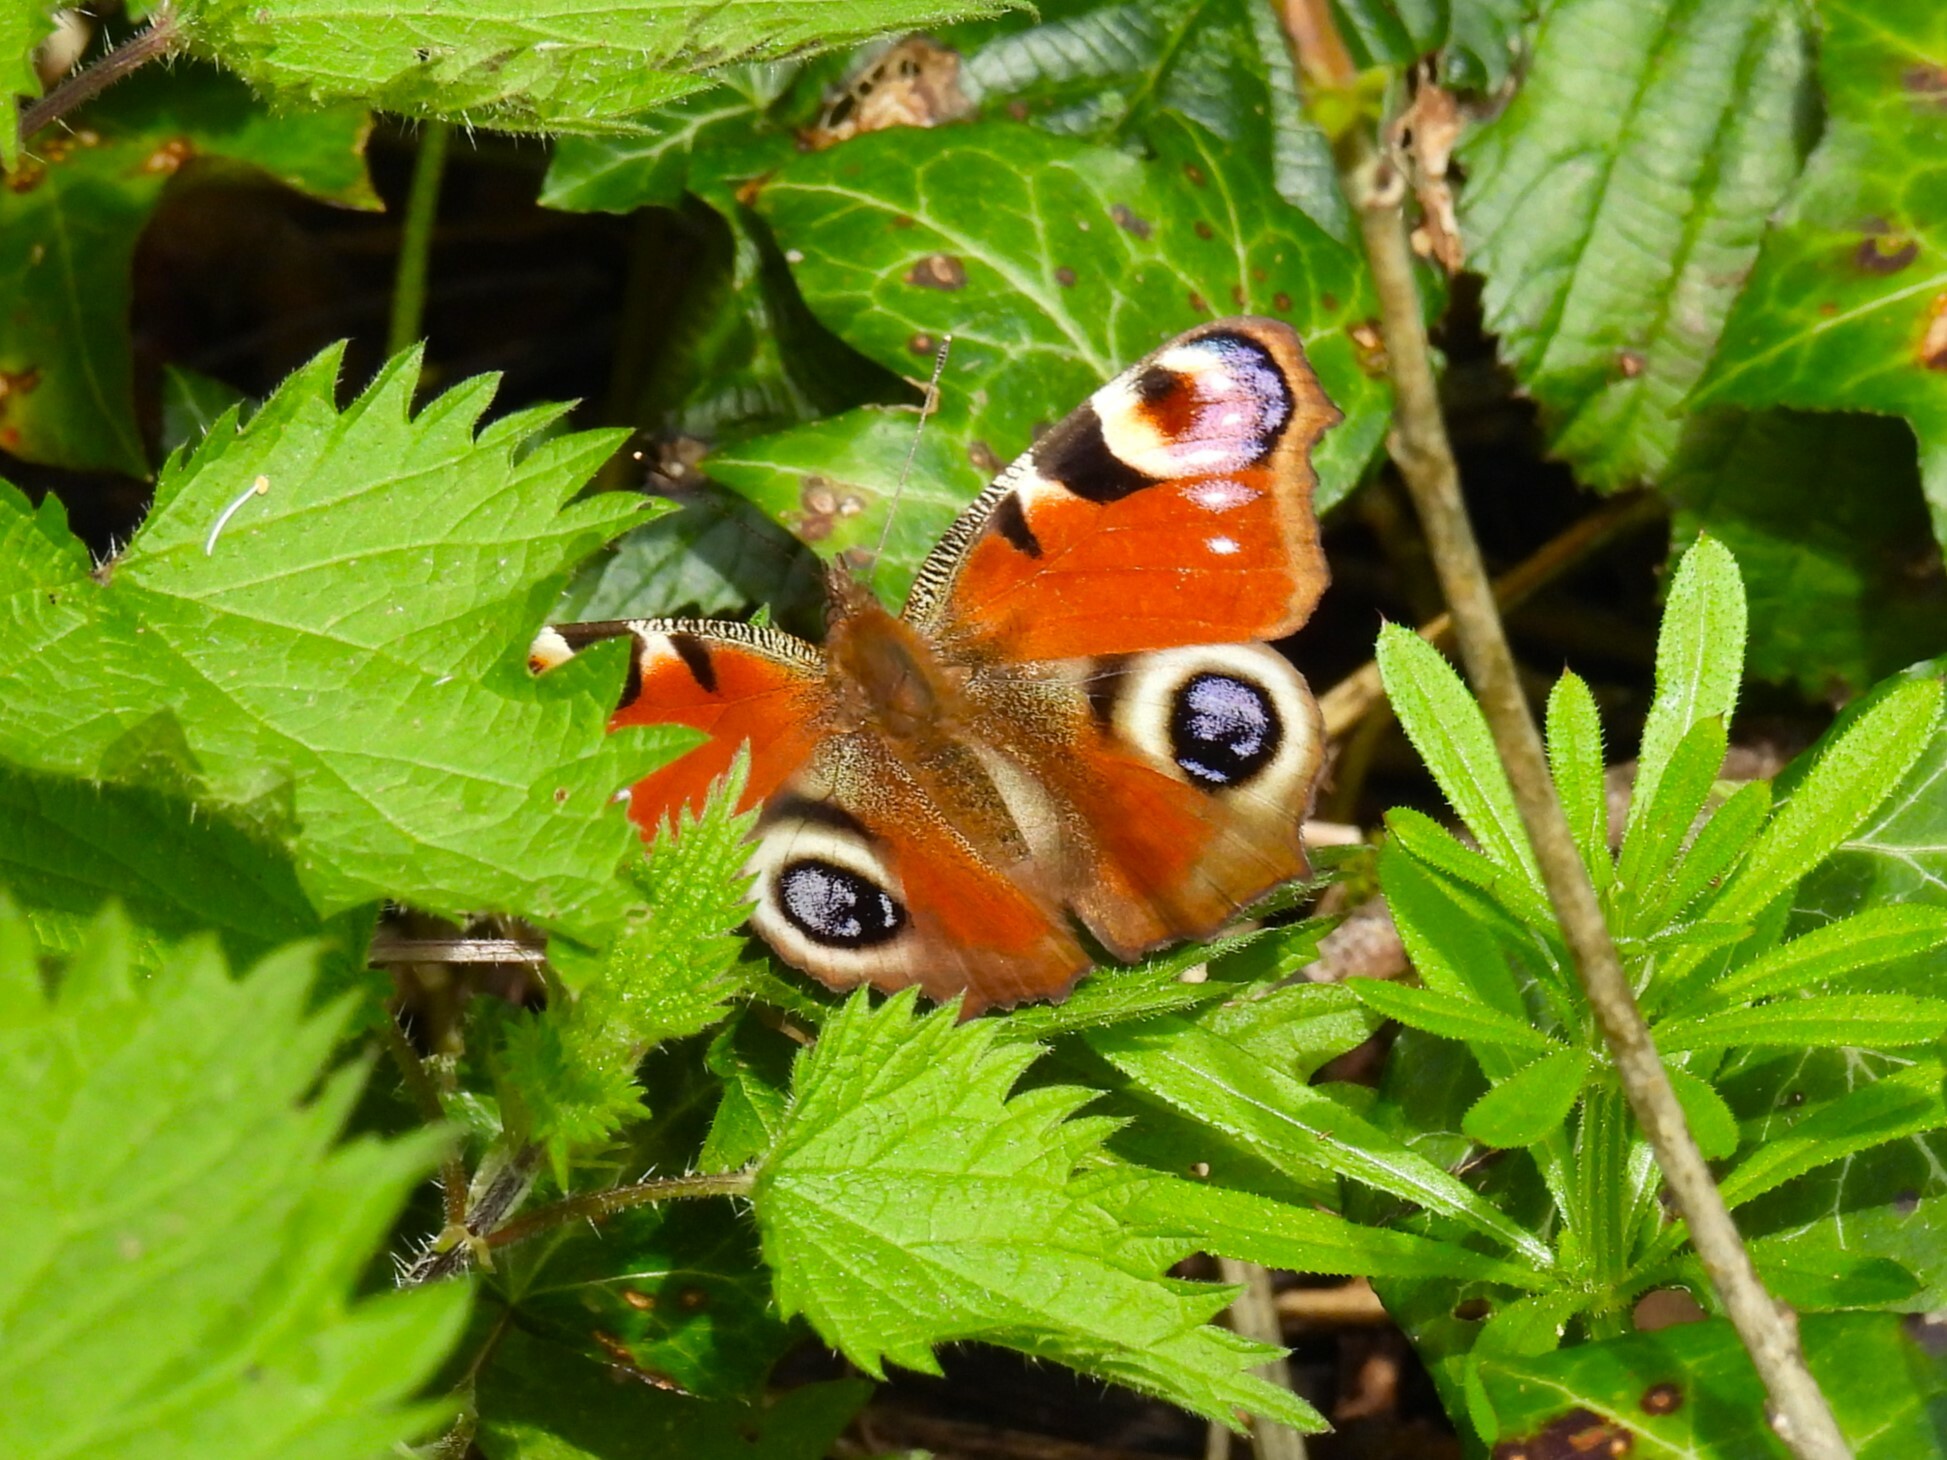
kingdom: Animalia
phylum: Arthropoda
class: Insecta
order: Lepidoptera
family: Nymphalidae
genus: Aglais
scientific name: Aglais io
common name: Peacock
